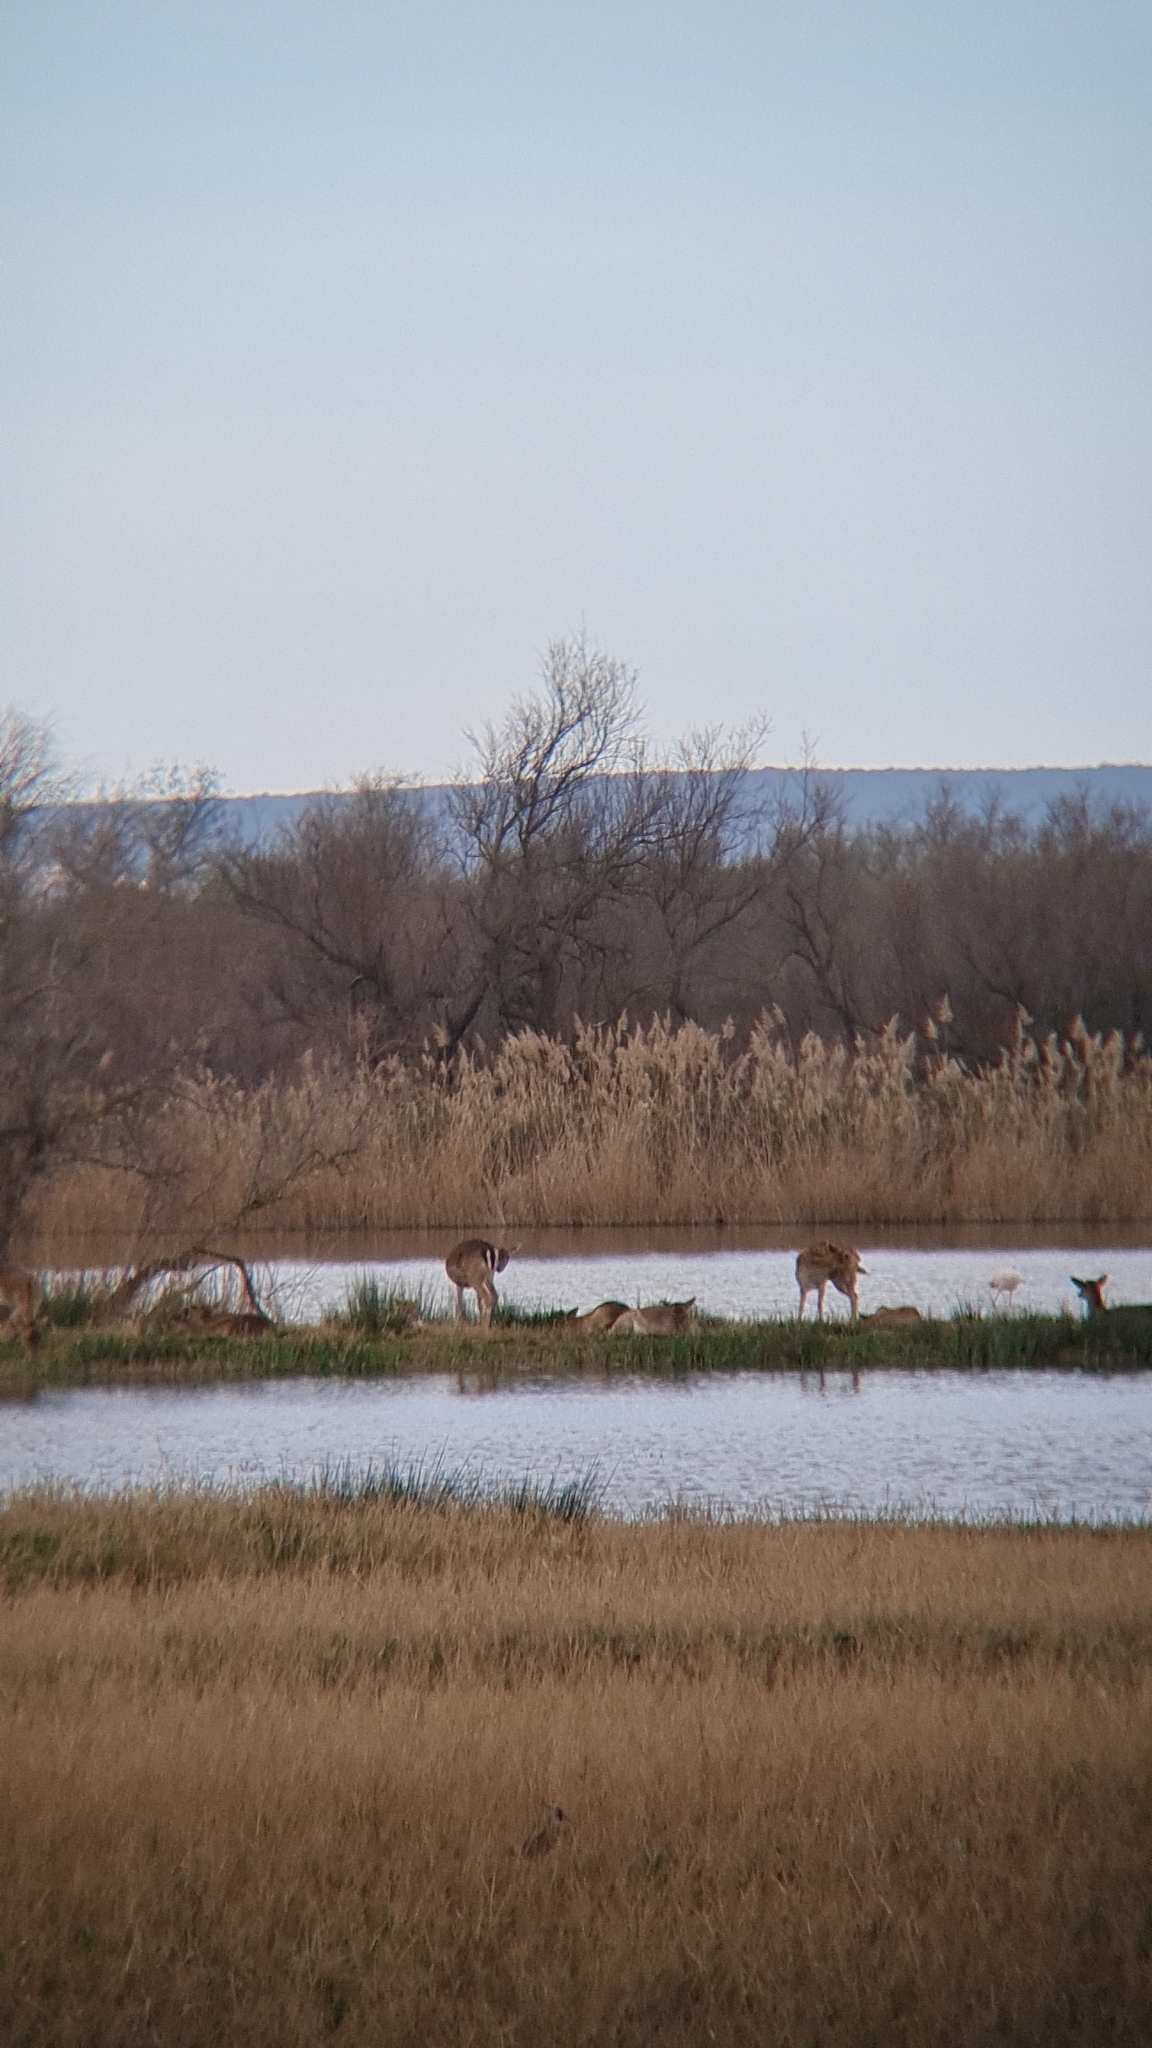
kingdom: Animalia
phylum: Chordata
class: Mammalia
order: Artiodactyla
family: Cervidae
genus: Dama
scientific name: Dama dama
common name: Fallow deer
